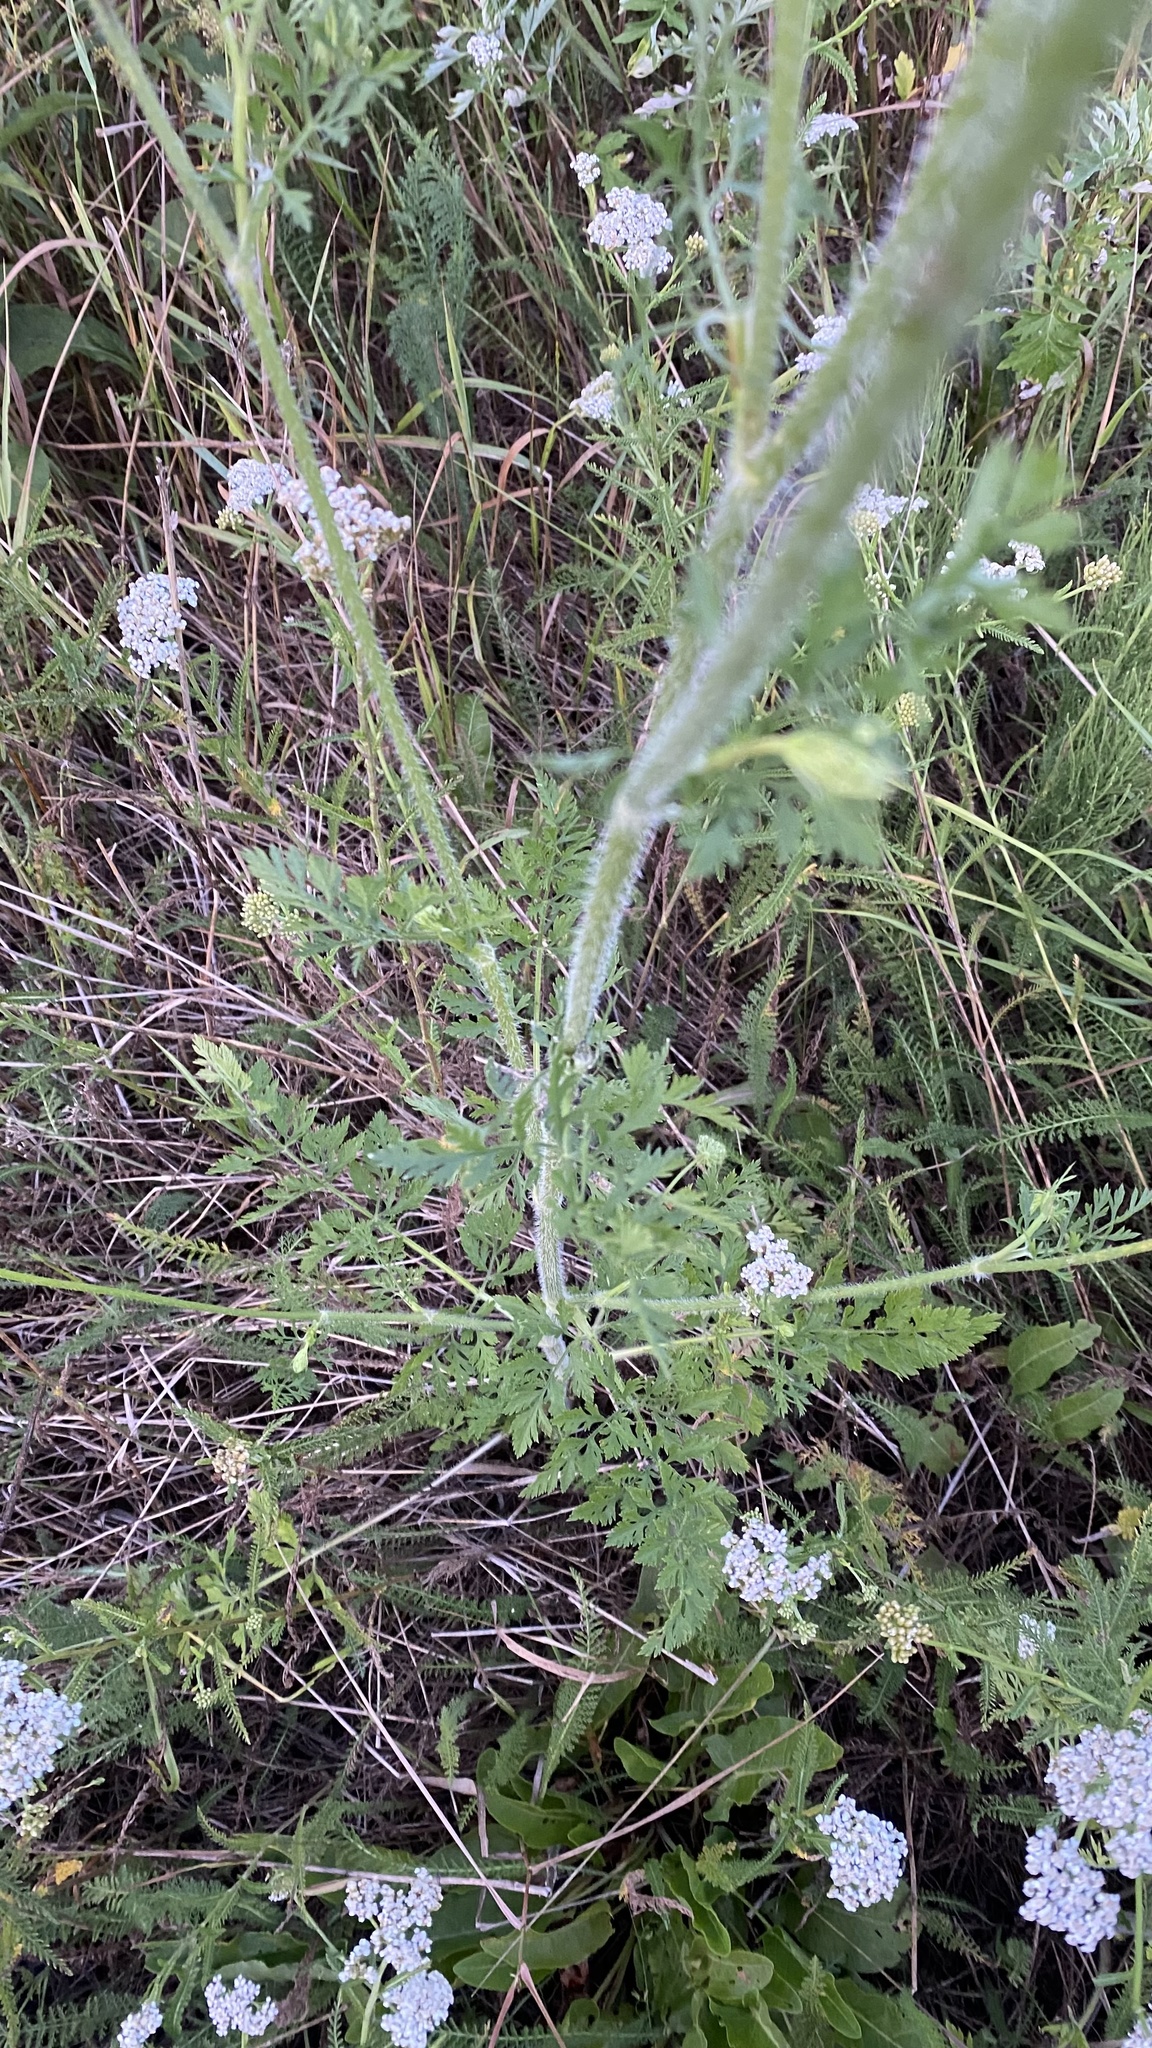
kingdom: Plantae
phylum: Tracheophyta
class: Magnoliopsida
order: Apiales
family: Apiaceae
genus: Daucus
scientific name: Daucus carota
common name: Wild carrot
